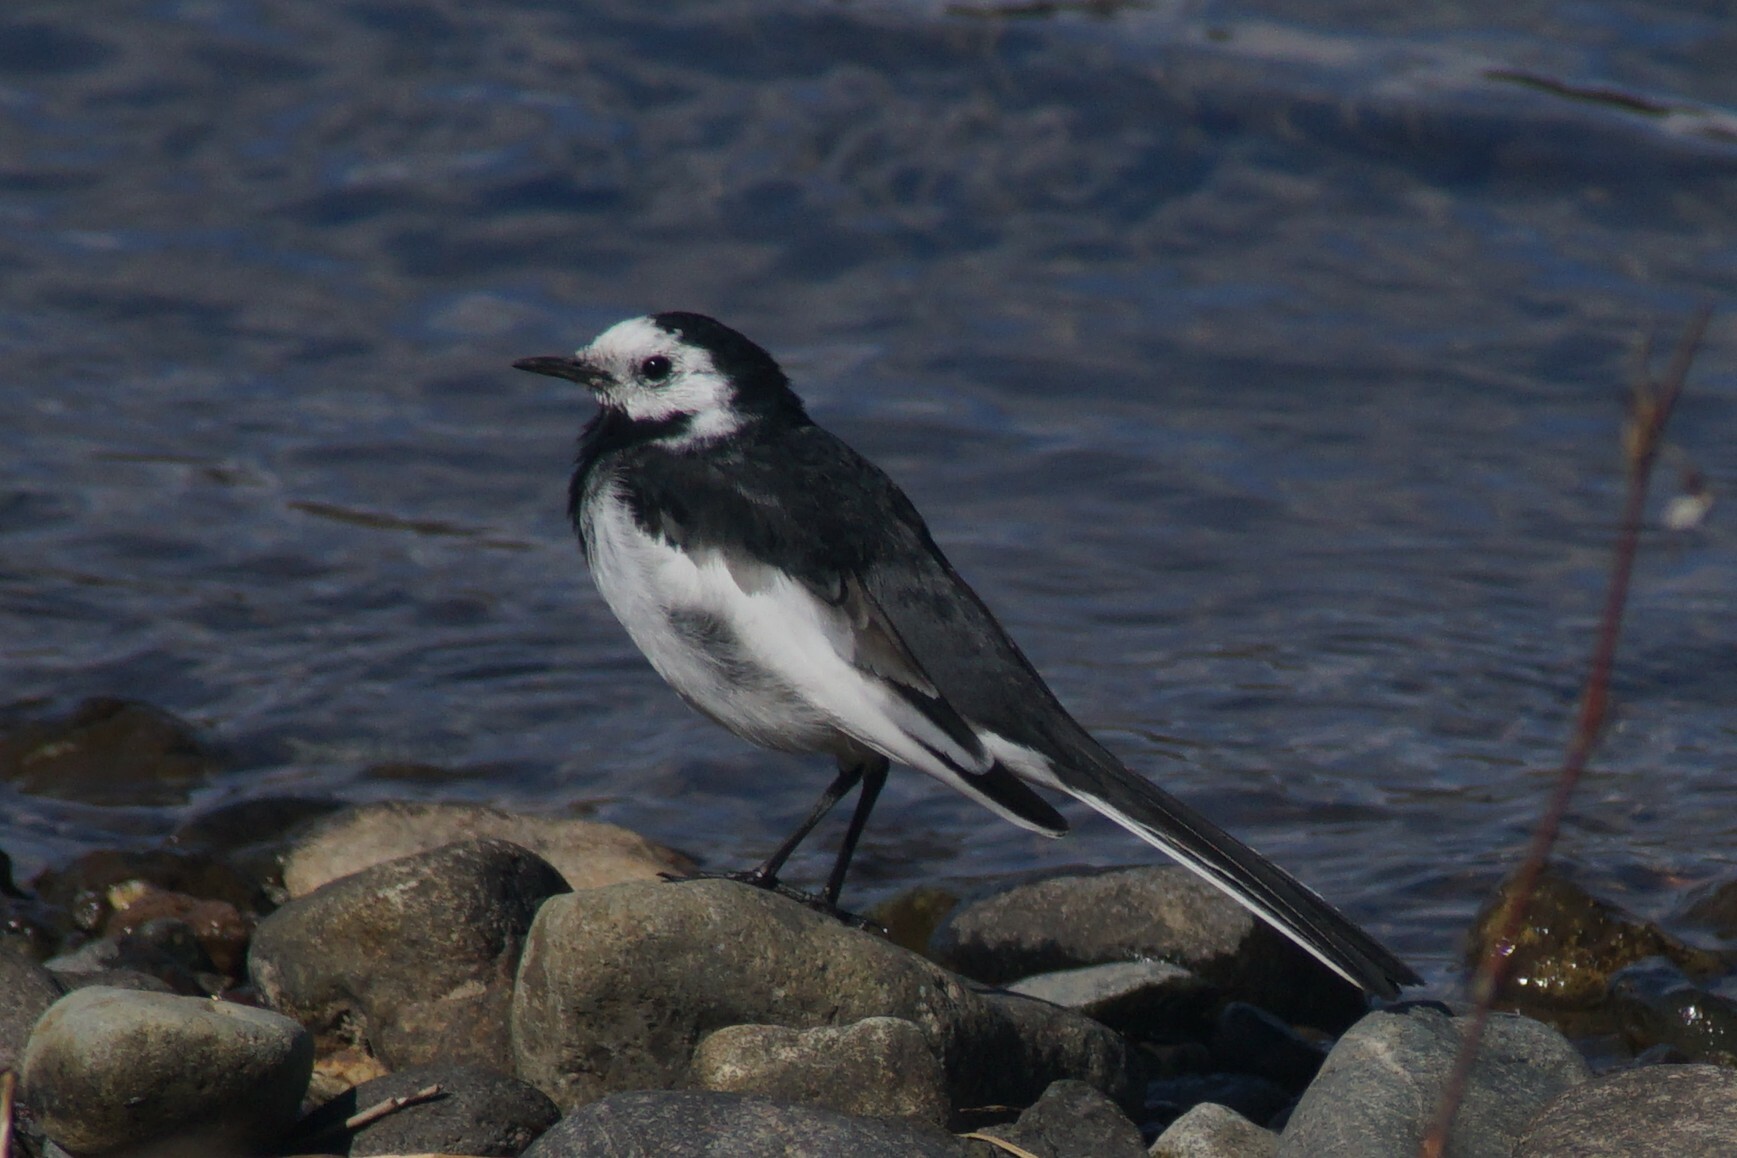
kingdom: Animalia
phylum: Chordata
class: Aves
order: Passeriformes
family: Motacillidae
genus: Motacilla
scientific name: Motacilla alba
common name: White wagtail
